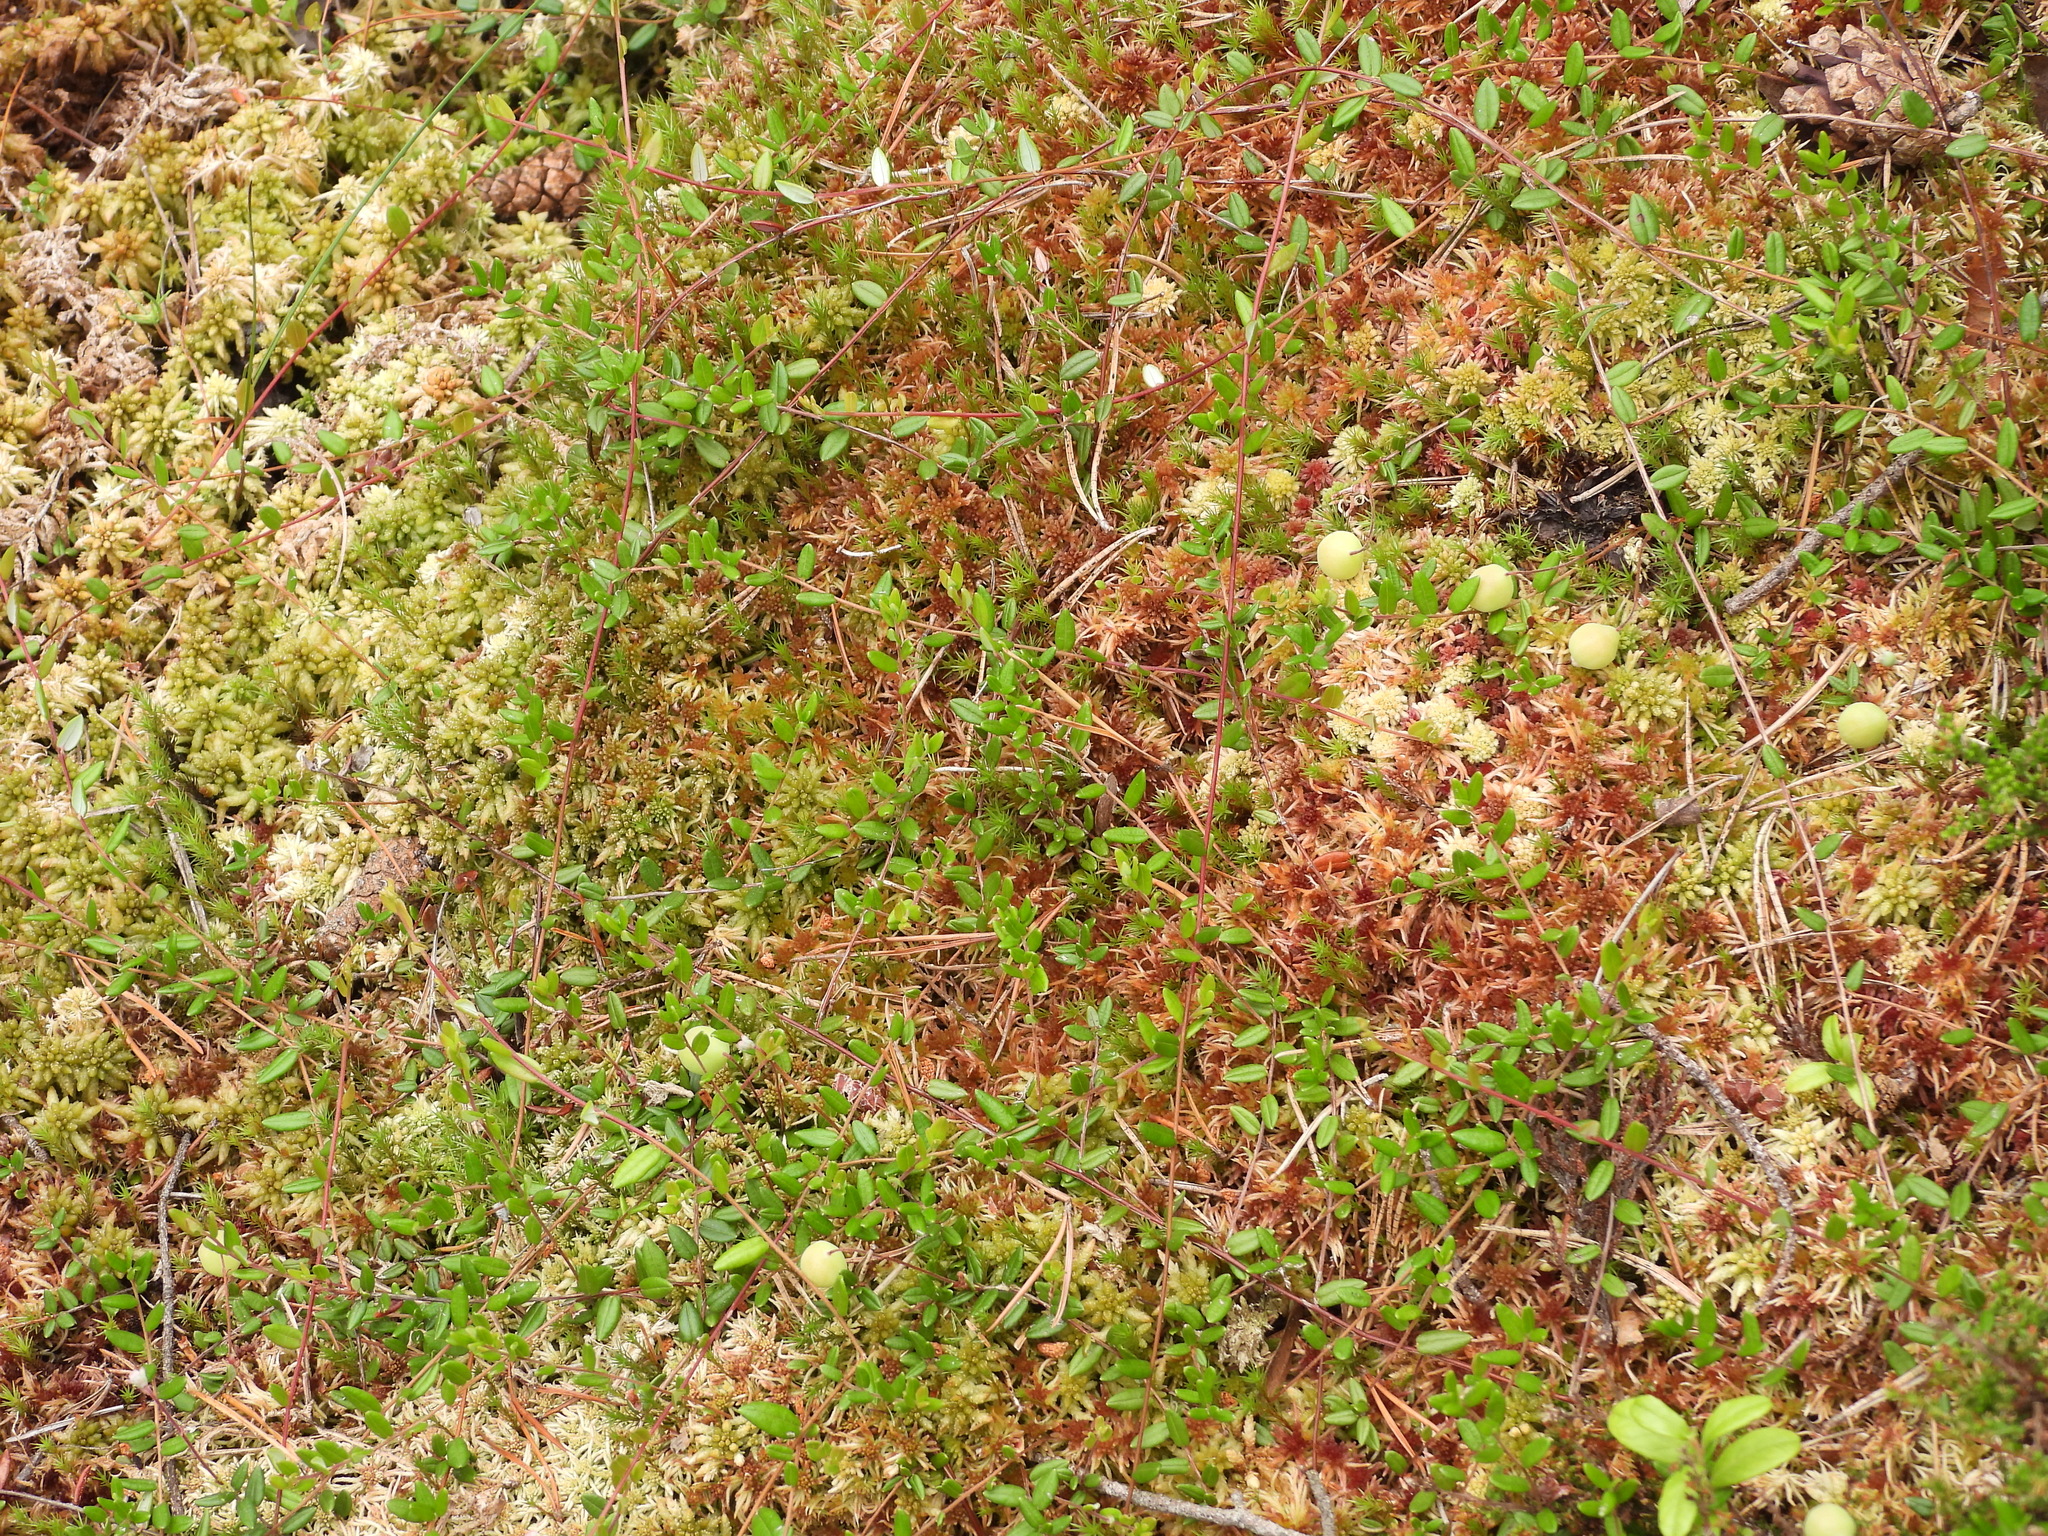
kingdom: Plantae
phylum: Tracheophyta
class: Magnoliopsida
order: Ericales
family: Ericaceae
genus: Vaccinium
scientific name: Vaccinium oxycoccos
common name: Cranberry
